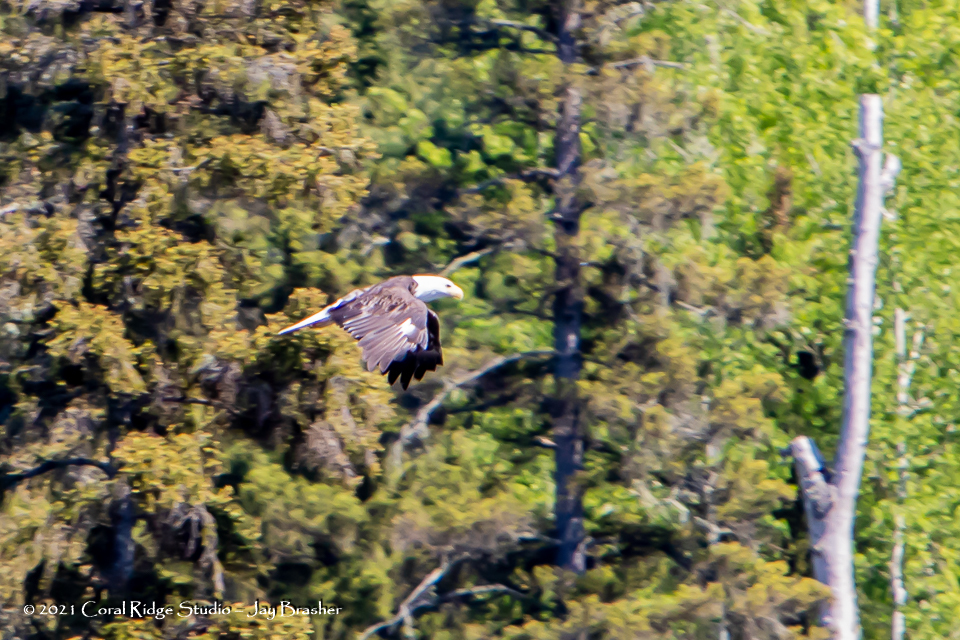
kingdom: Animalia
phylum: Chordata
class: Aves
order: Accipitriformes
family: Accipitridae
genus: Haliaeetus
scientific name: Haliaeetus leucocephalus
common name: Bald eagle
